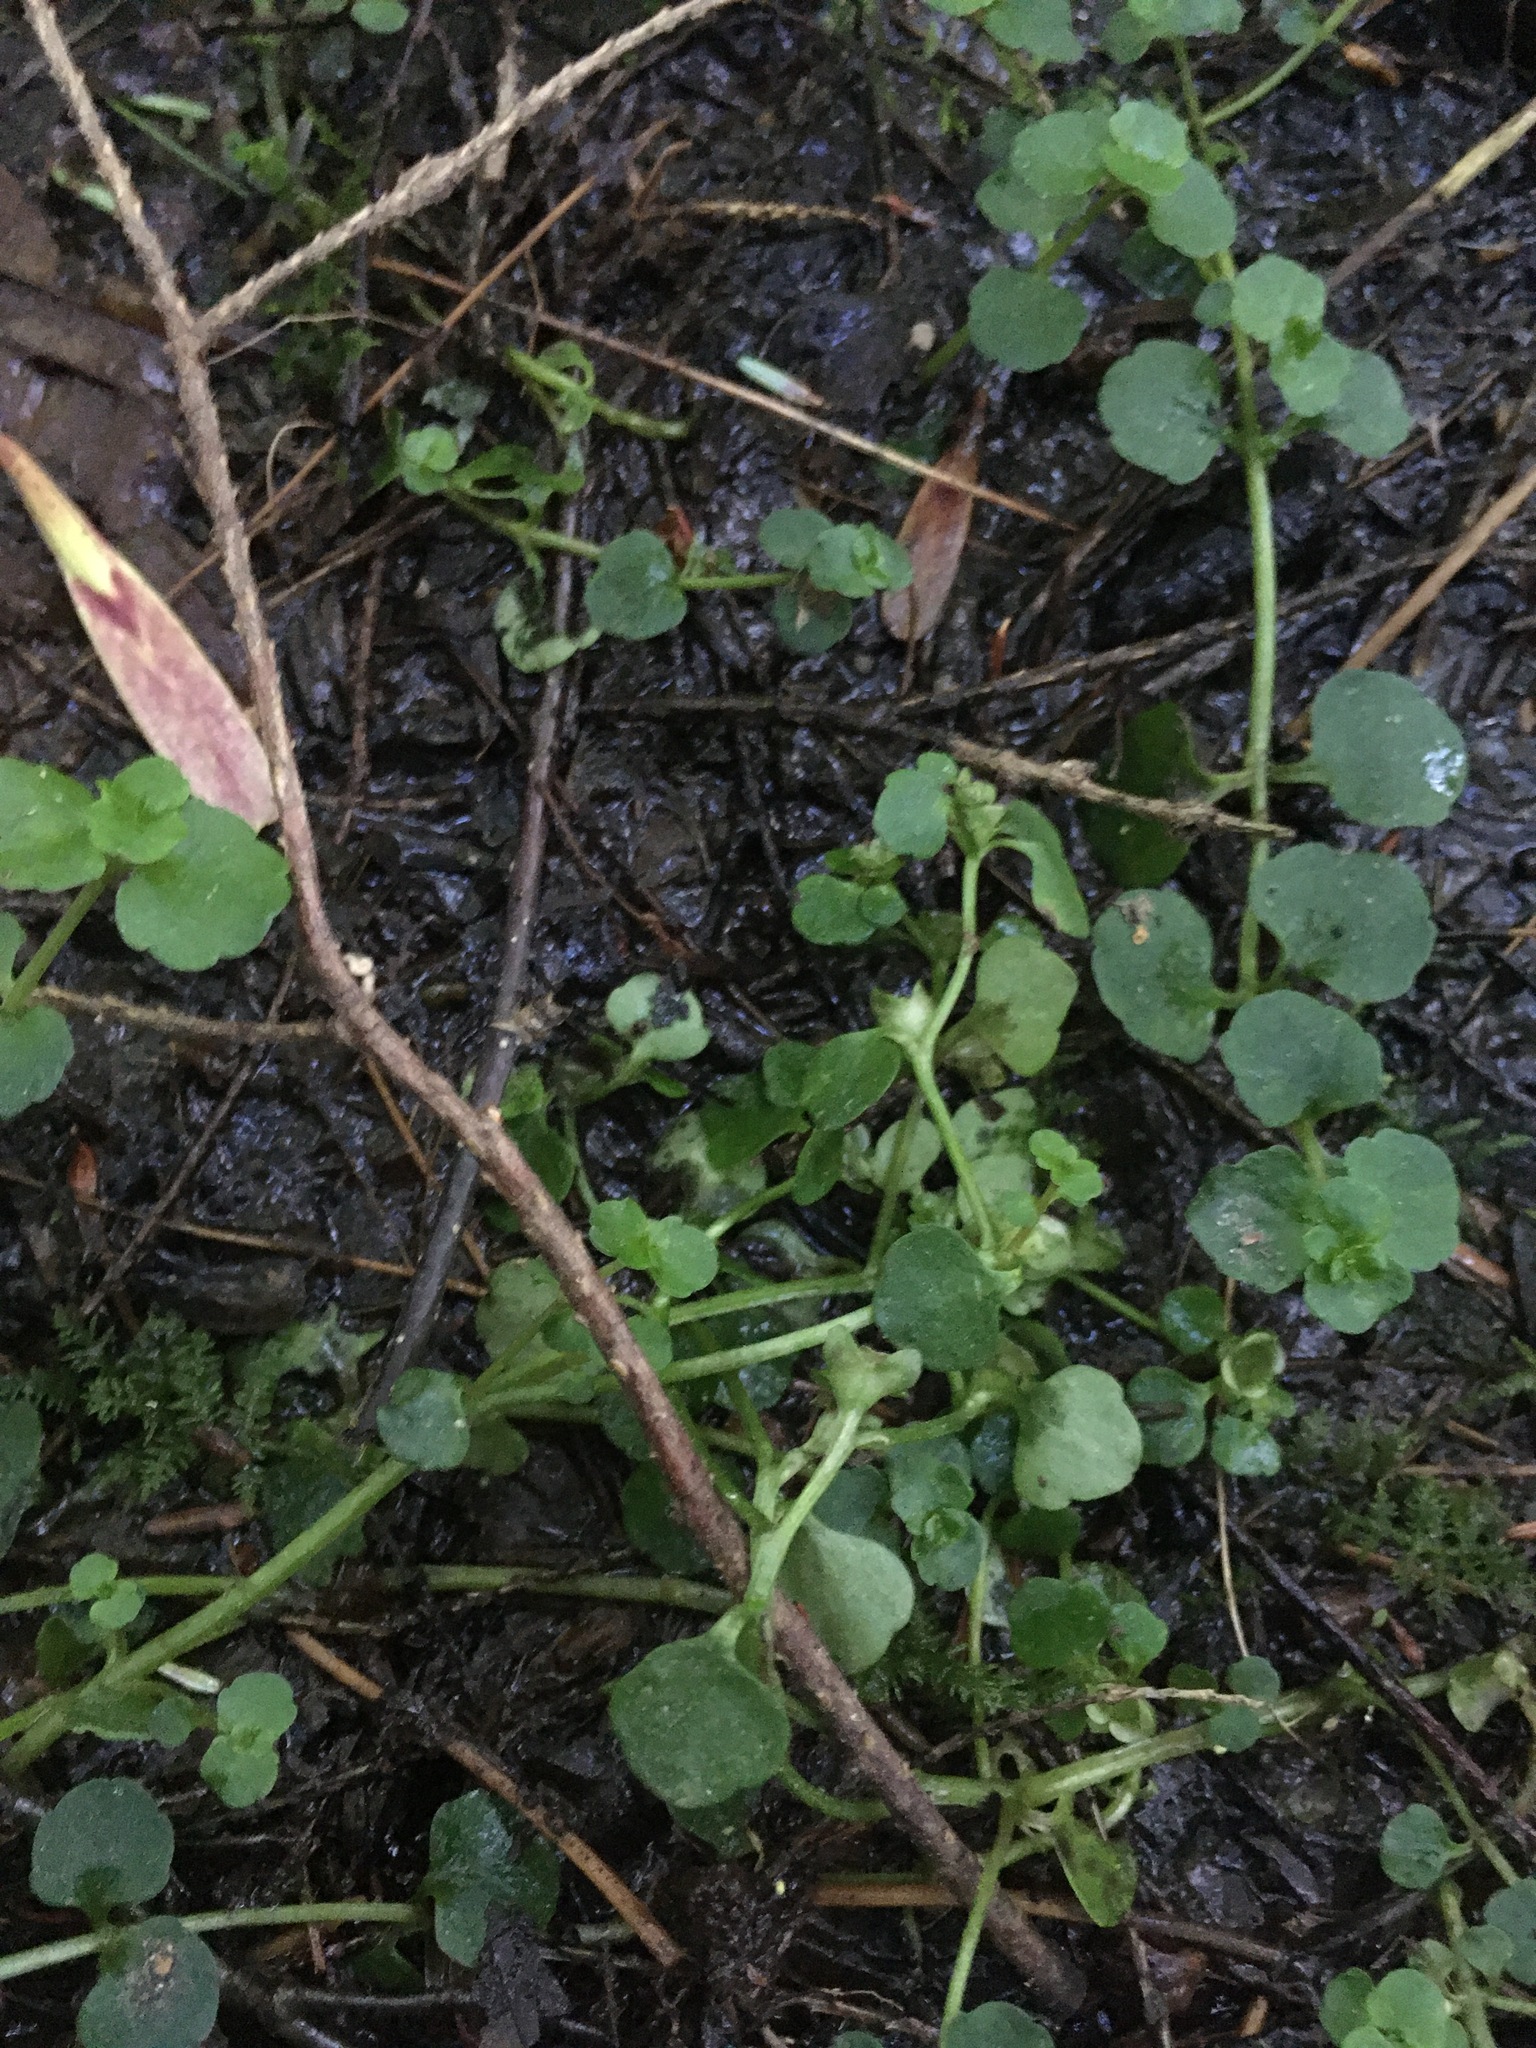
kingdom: Plantae
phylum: Tracheophyta
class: Magnoliopsida
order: Saxifragales
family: Saxifragaceae
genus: Chrysosplenium
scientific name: Chrysosplenium americanum
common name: American golden-saxifrage
